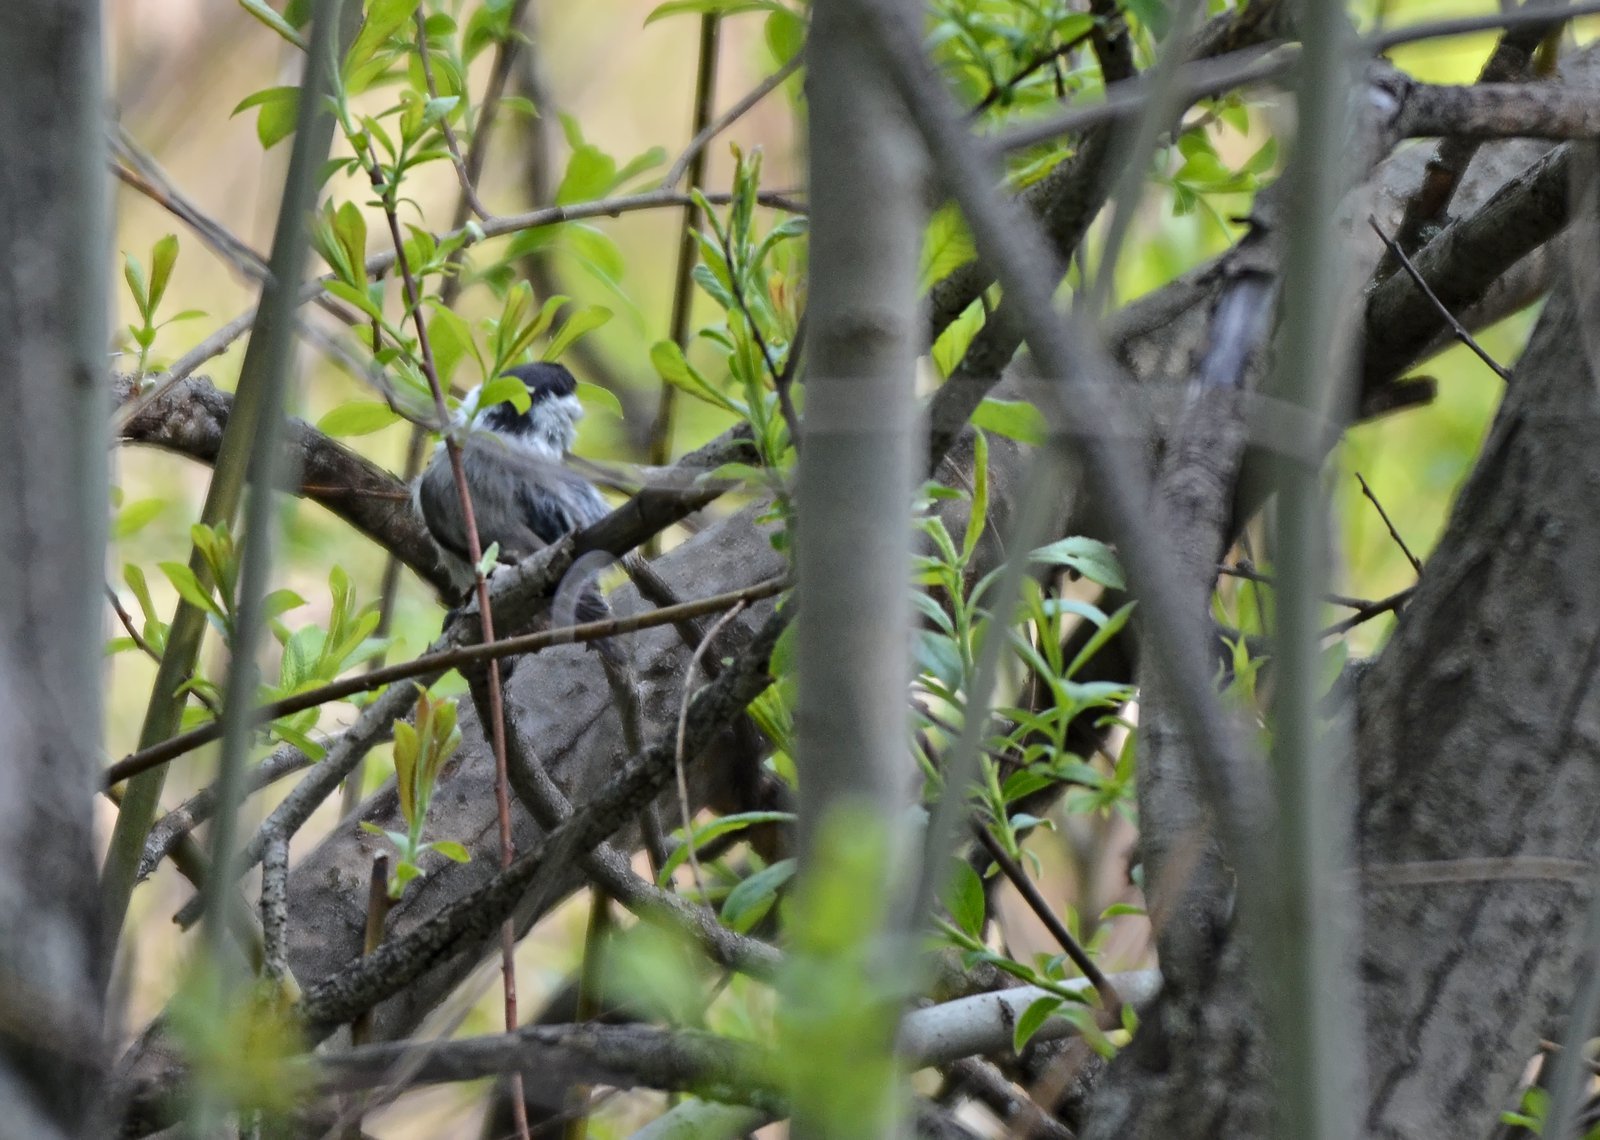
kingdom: Animalia
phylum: Chordata
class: Aves
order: Passeriformes
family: Paridae
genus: Poecile
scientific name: Poecile montanus
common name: Willow tit
